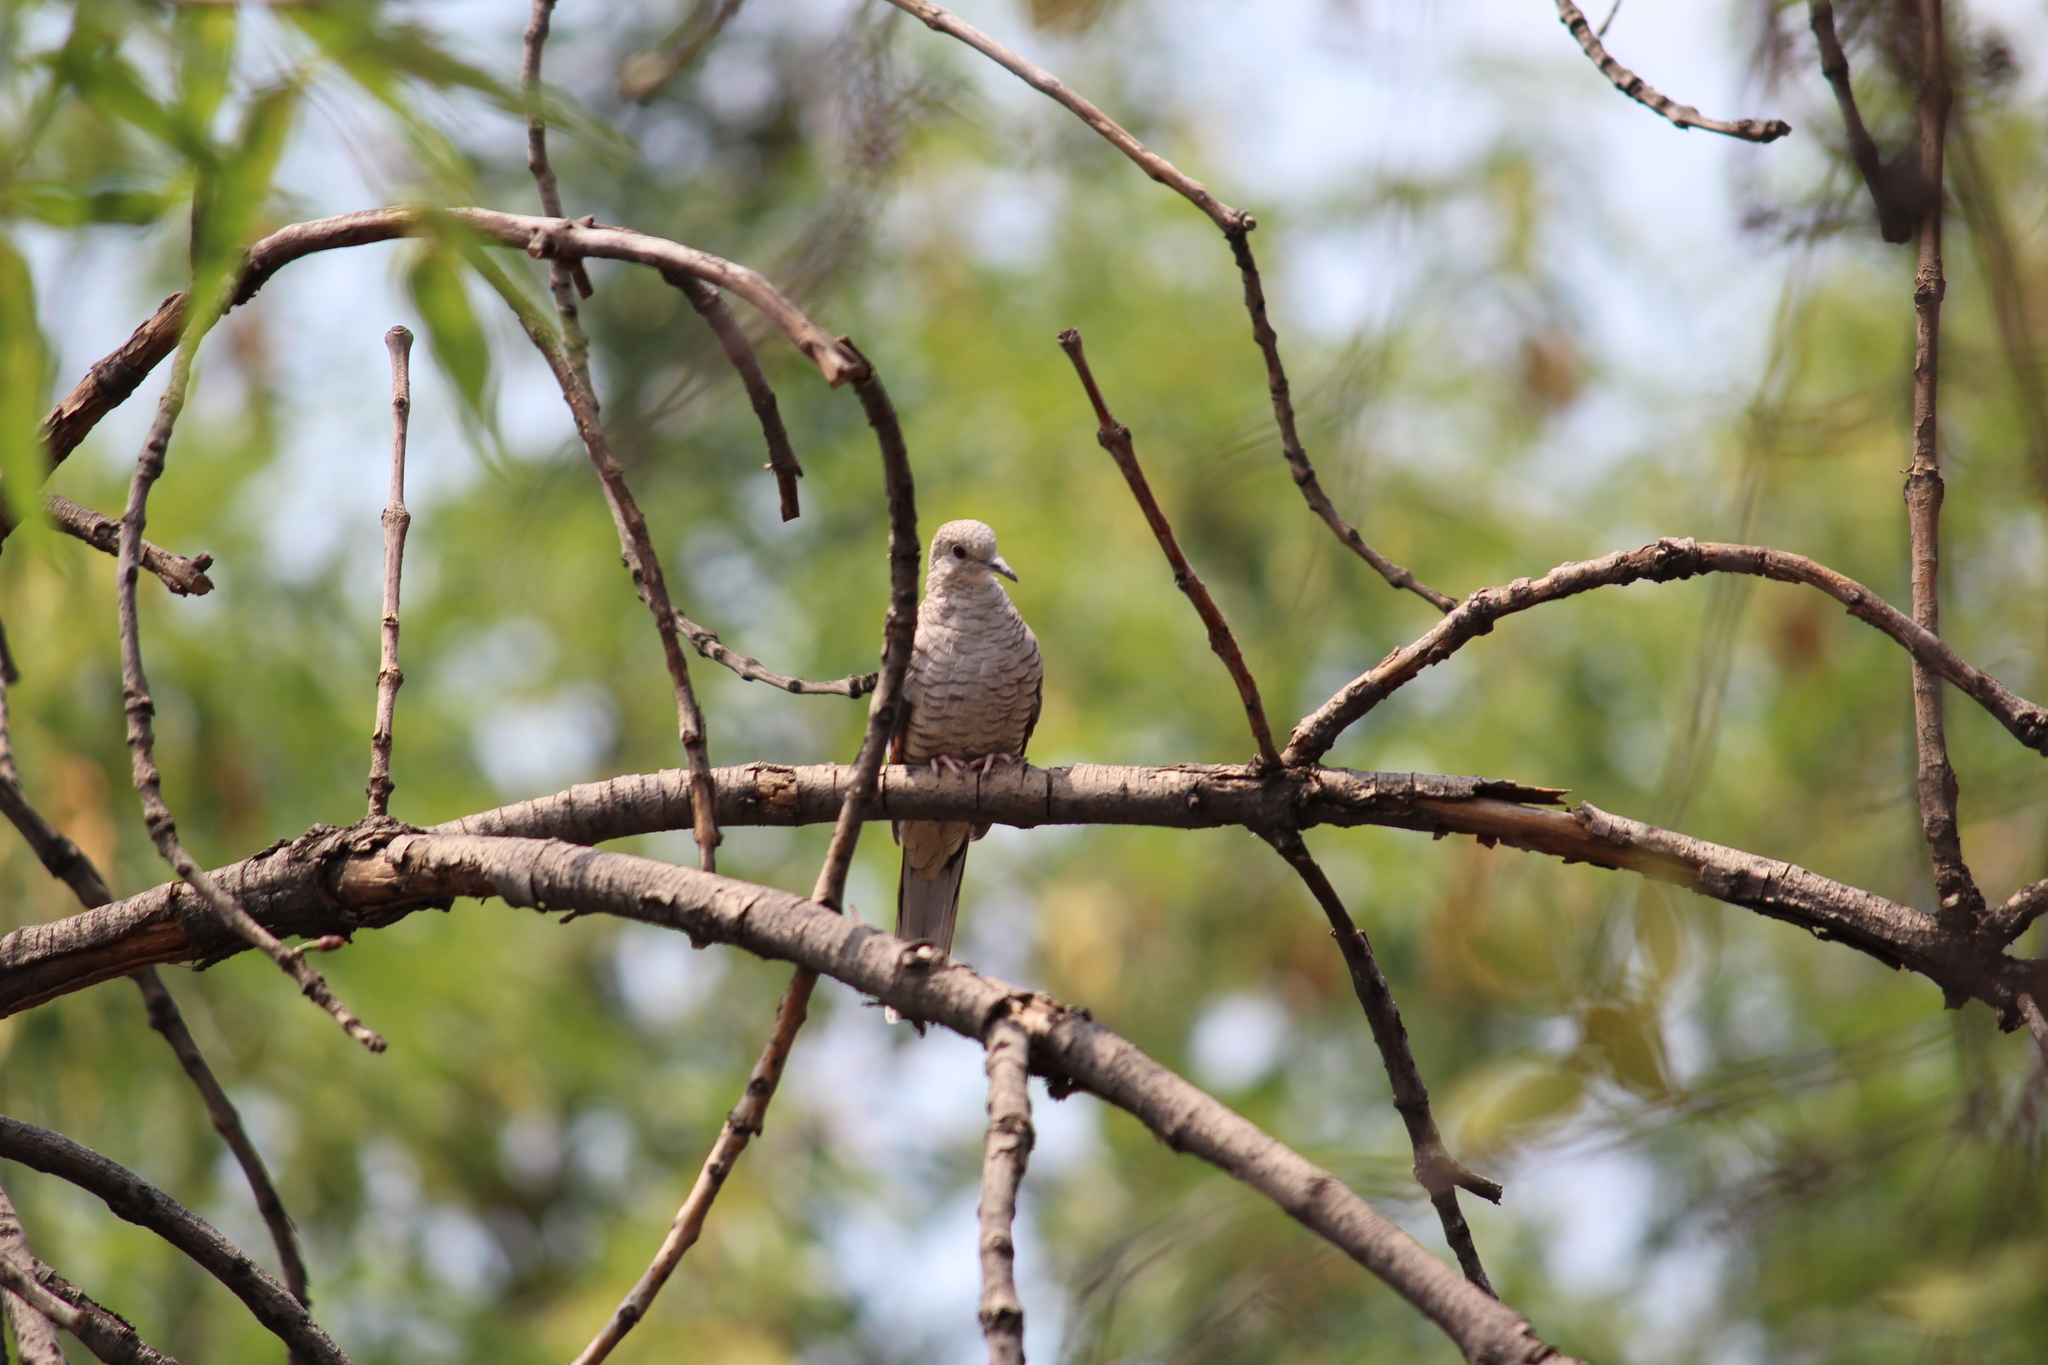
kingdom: Animalia
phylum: Chordata
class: Aves
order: Columbiformes
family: Columbidae
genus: Columbina
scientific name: Columbina inca
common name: Inca dove
